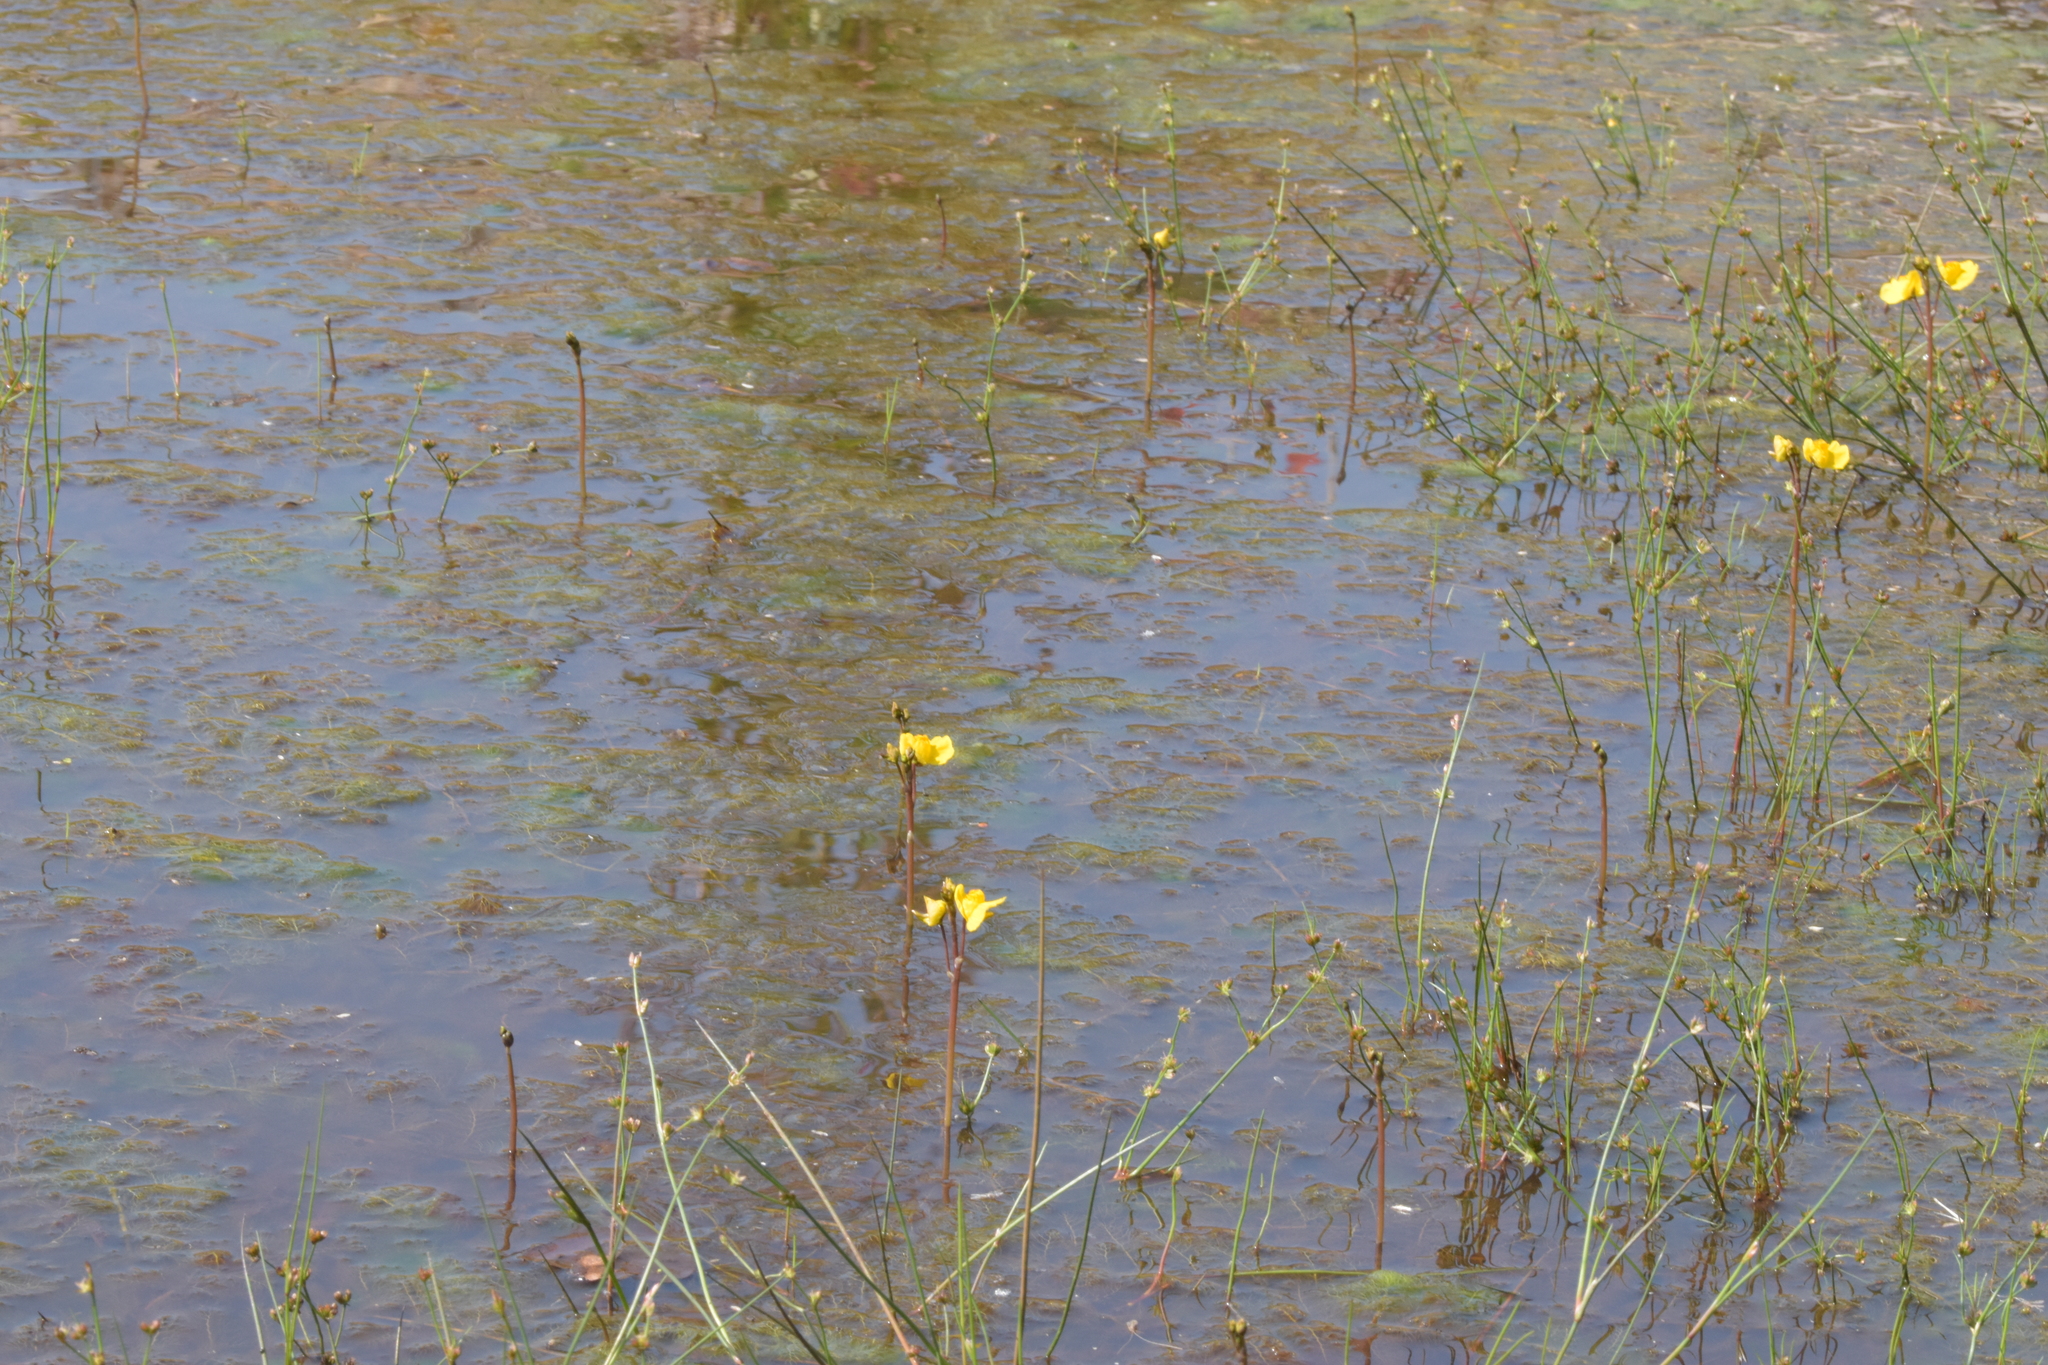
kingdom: Plantae
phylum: Tracheophyta
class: Magnoliopsida
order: Lamiales
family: Lentibulariaceae
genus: Utricularia
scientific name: Utricularia australis
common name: Bladderwort
